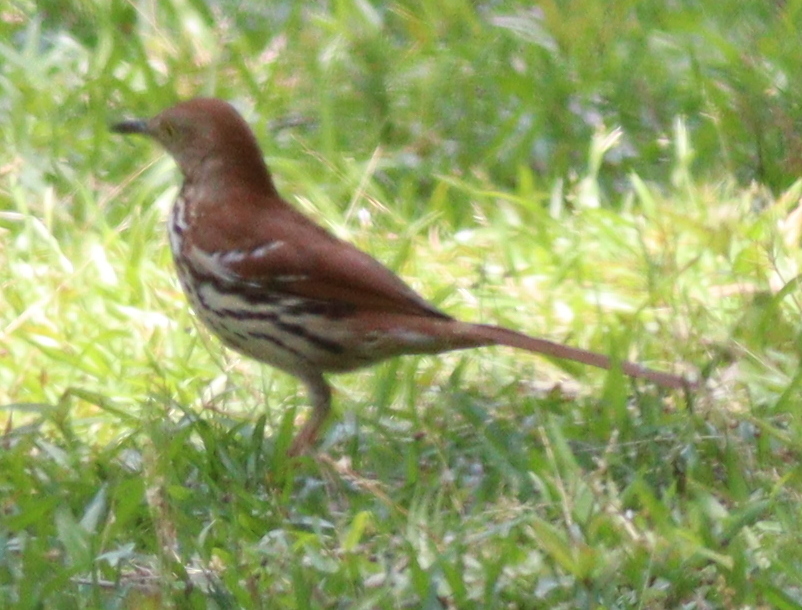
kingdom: Animalia
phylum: Chordata
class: Aves
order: Passeriformes
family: Mimidae
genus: Toxostoma
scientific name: Toxostoma rufum
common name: Brown thrasher
